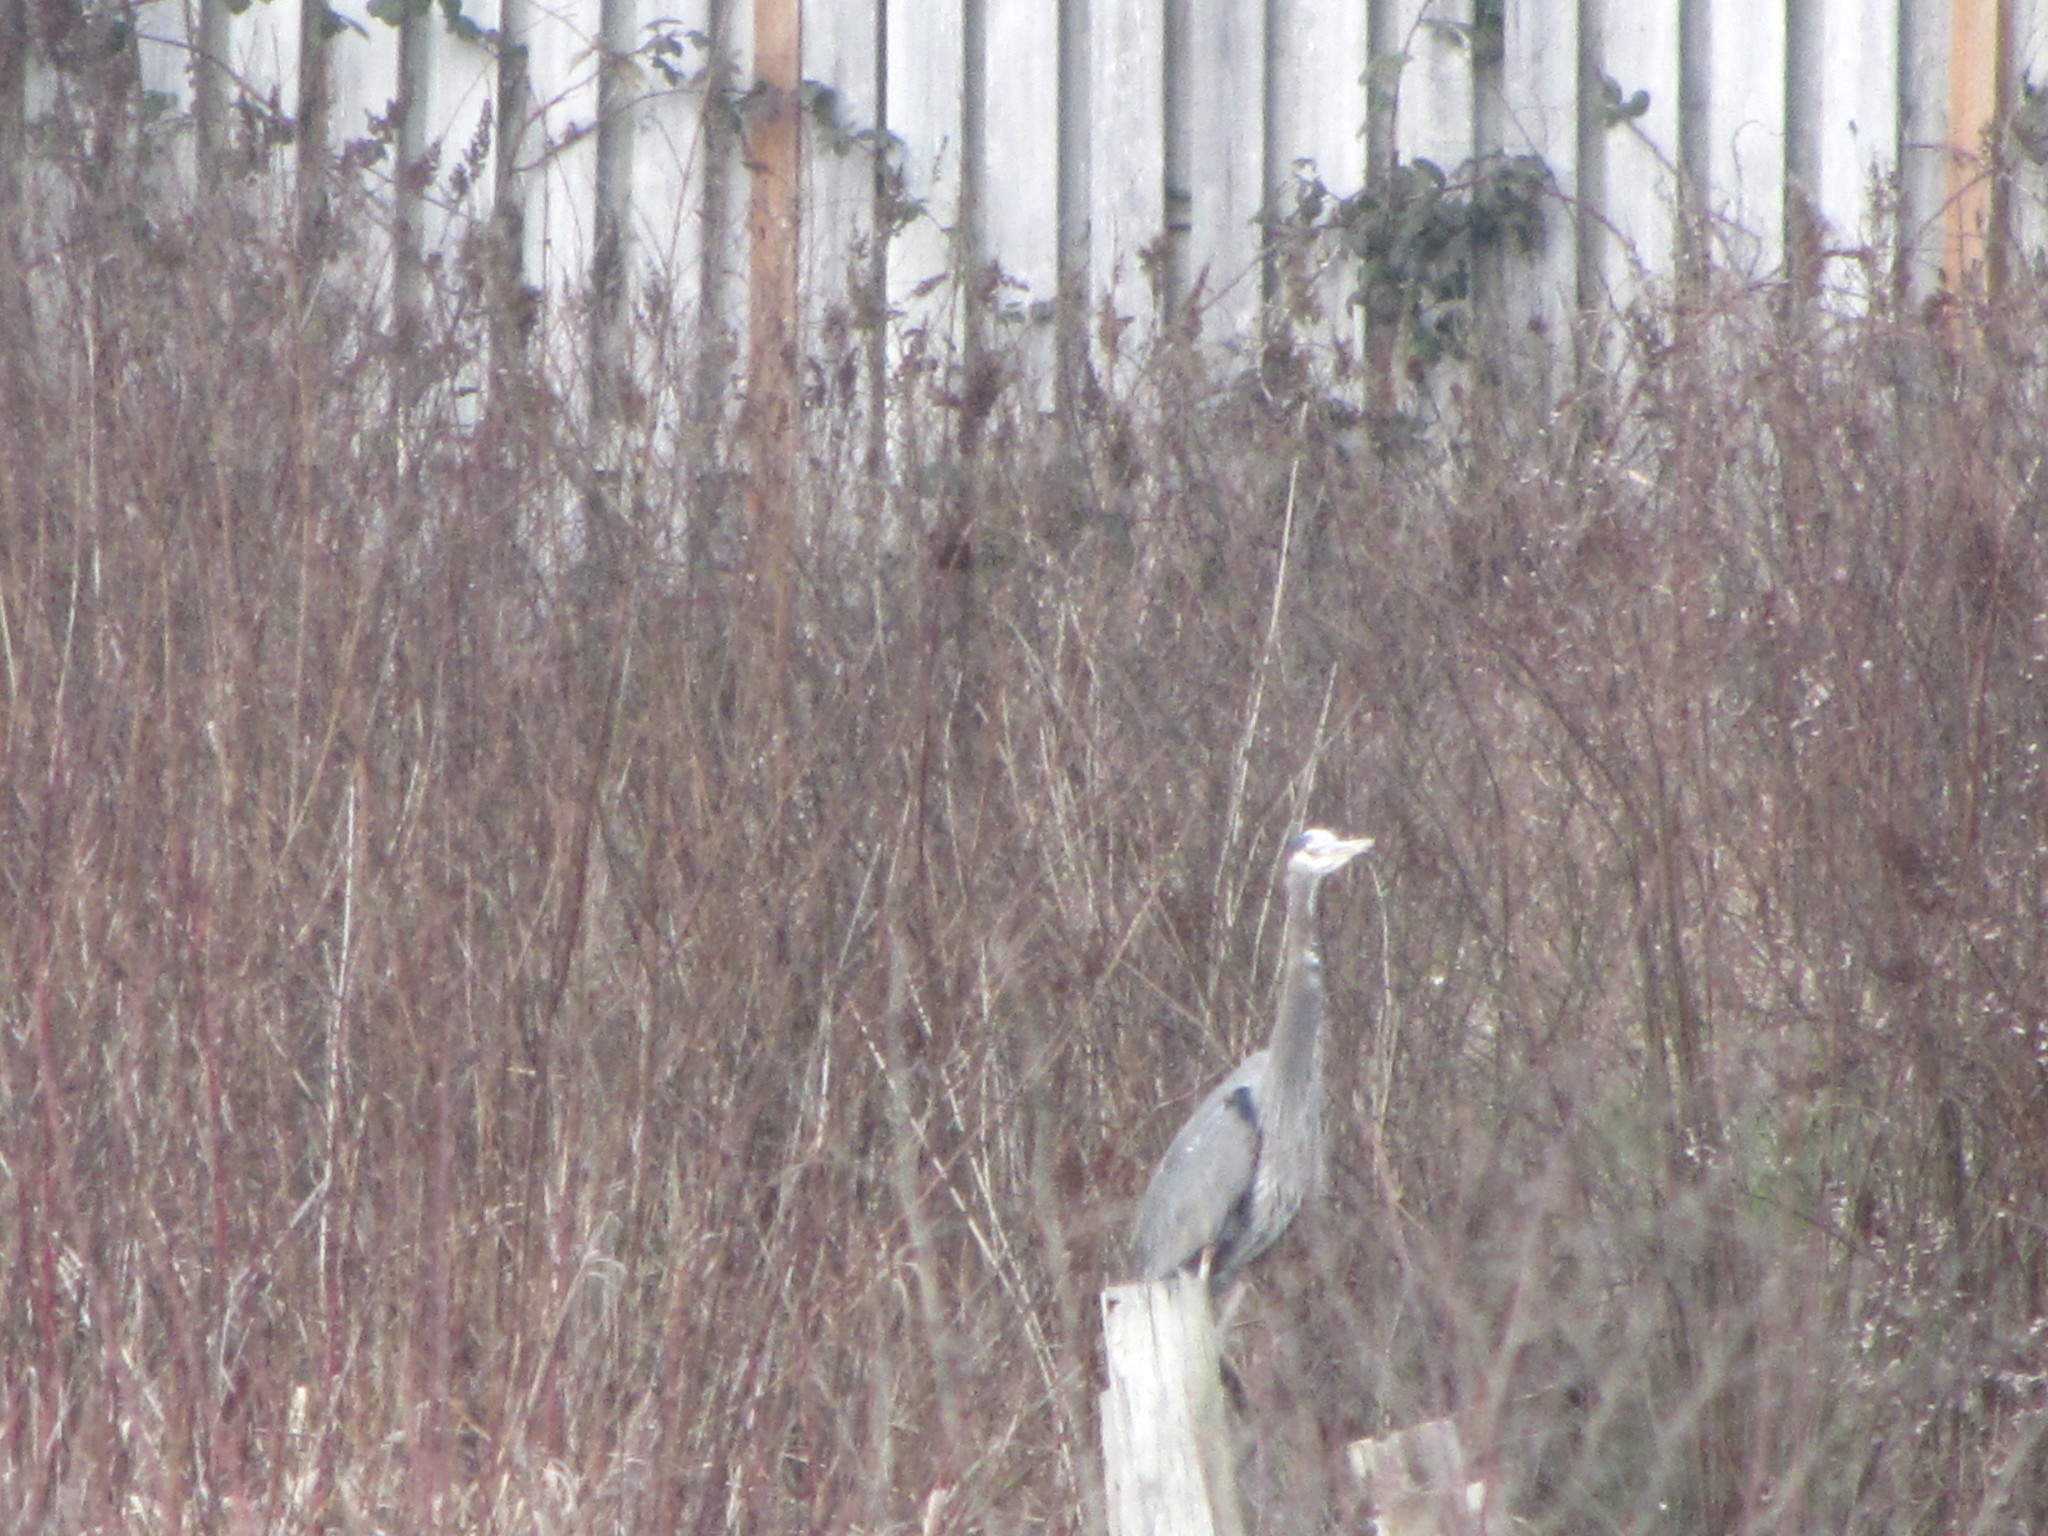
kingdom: Animalia
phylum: Chordata
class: Aves
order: Pelecaniformes
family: Ardeidae
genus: Ardea
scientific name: Ardea herodias
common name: Great blue heron
